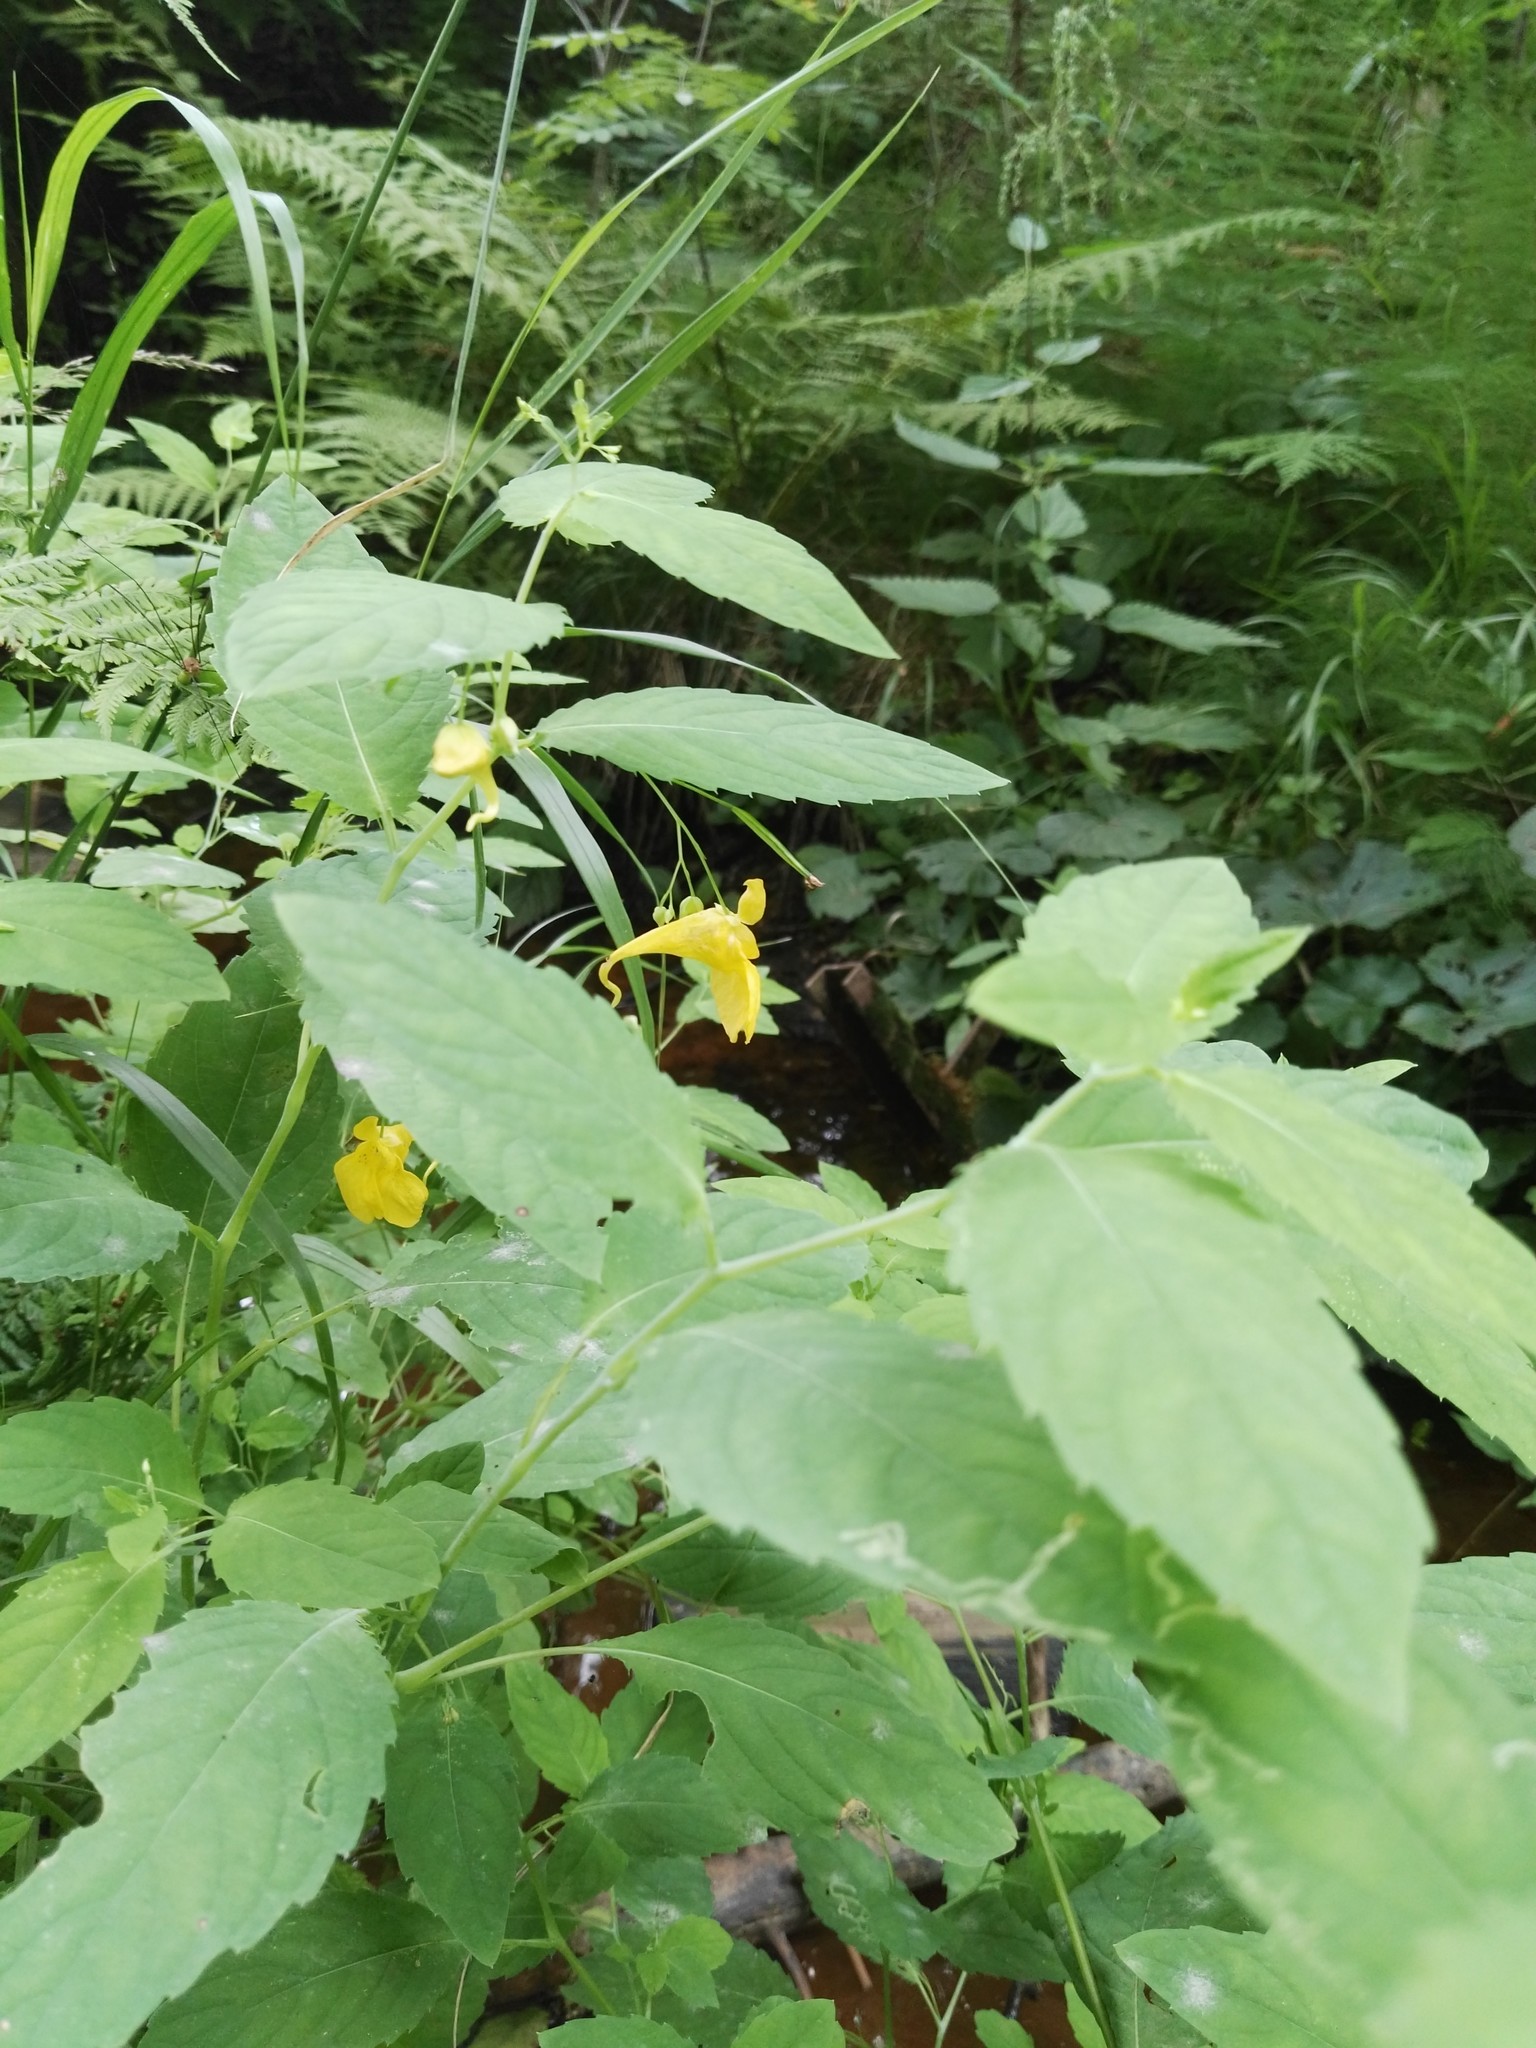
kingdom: Plantae
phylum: Tracheophyta
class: Magnoliopsida
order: Ericales
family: Balsaminaceae
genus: Impatiens
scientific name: Impatiens noli-tangere
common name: Touch-me-not balsam
